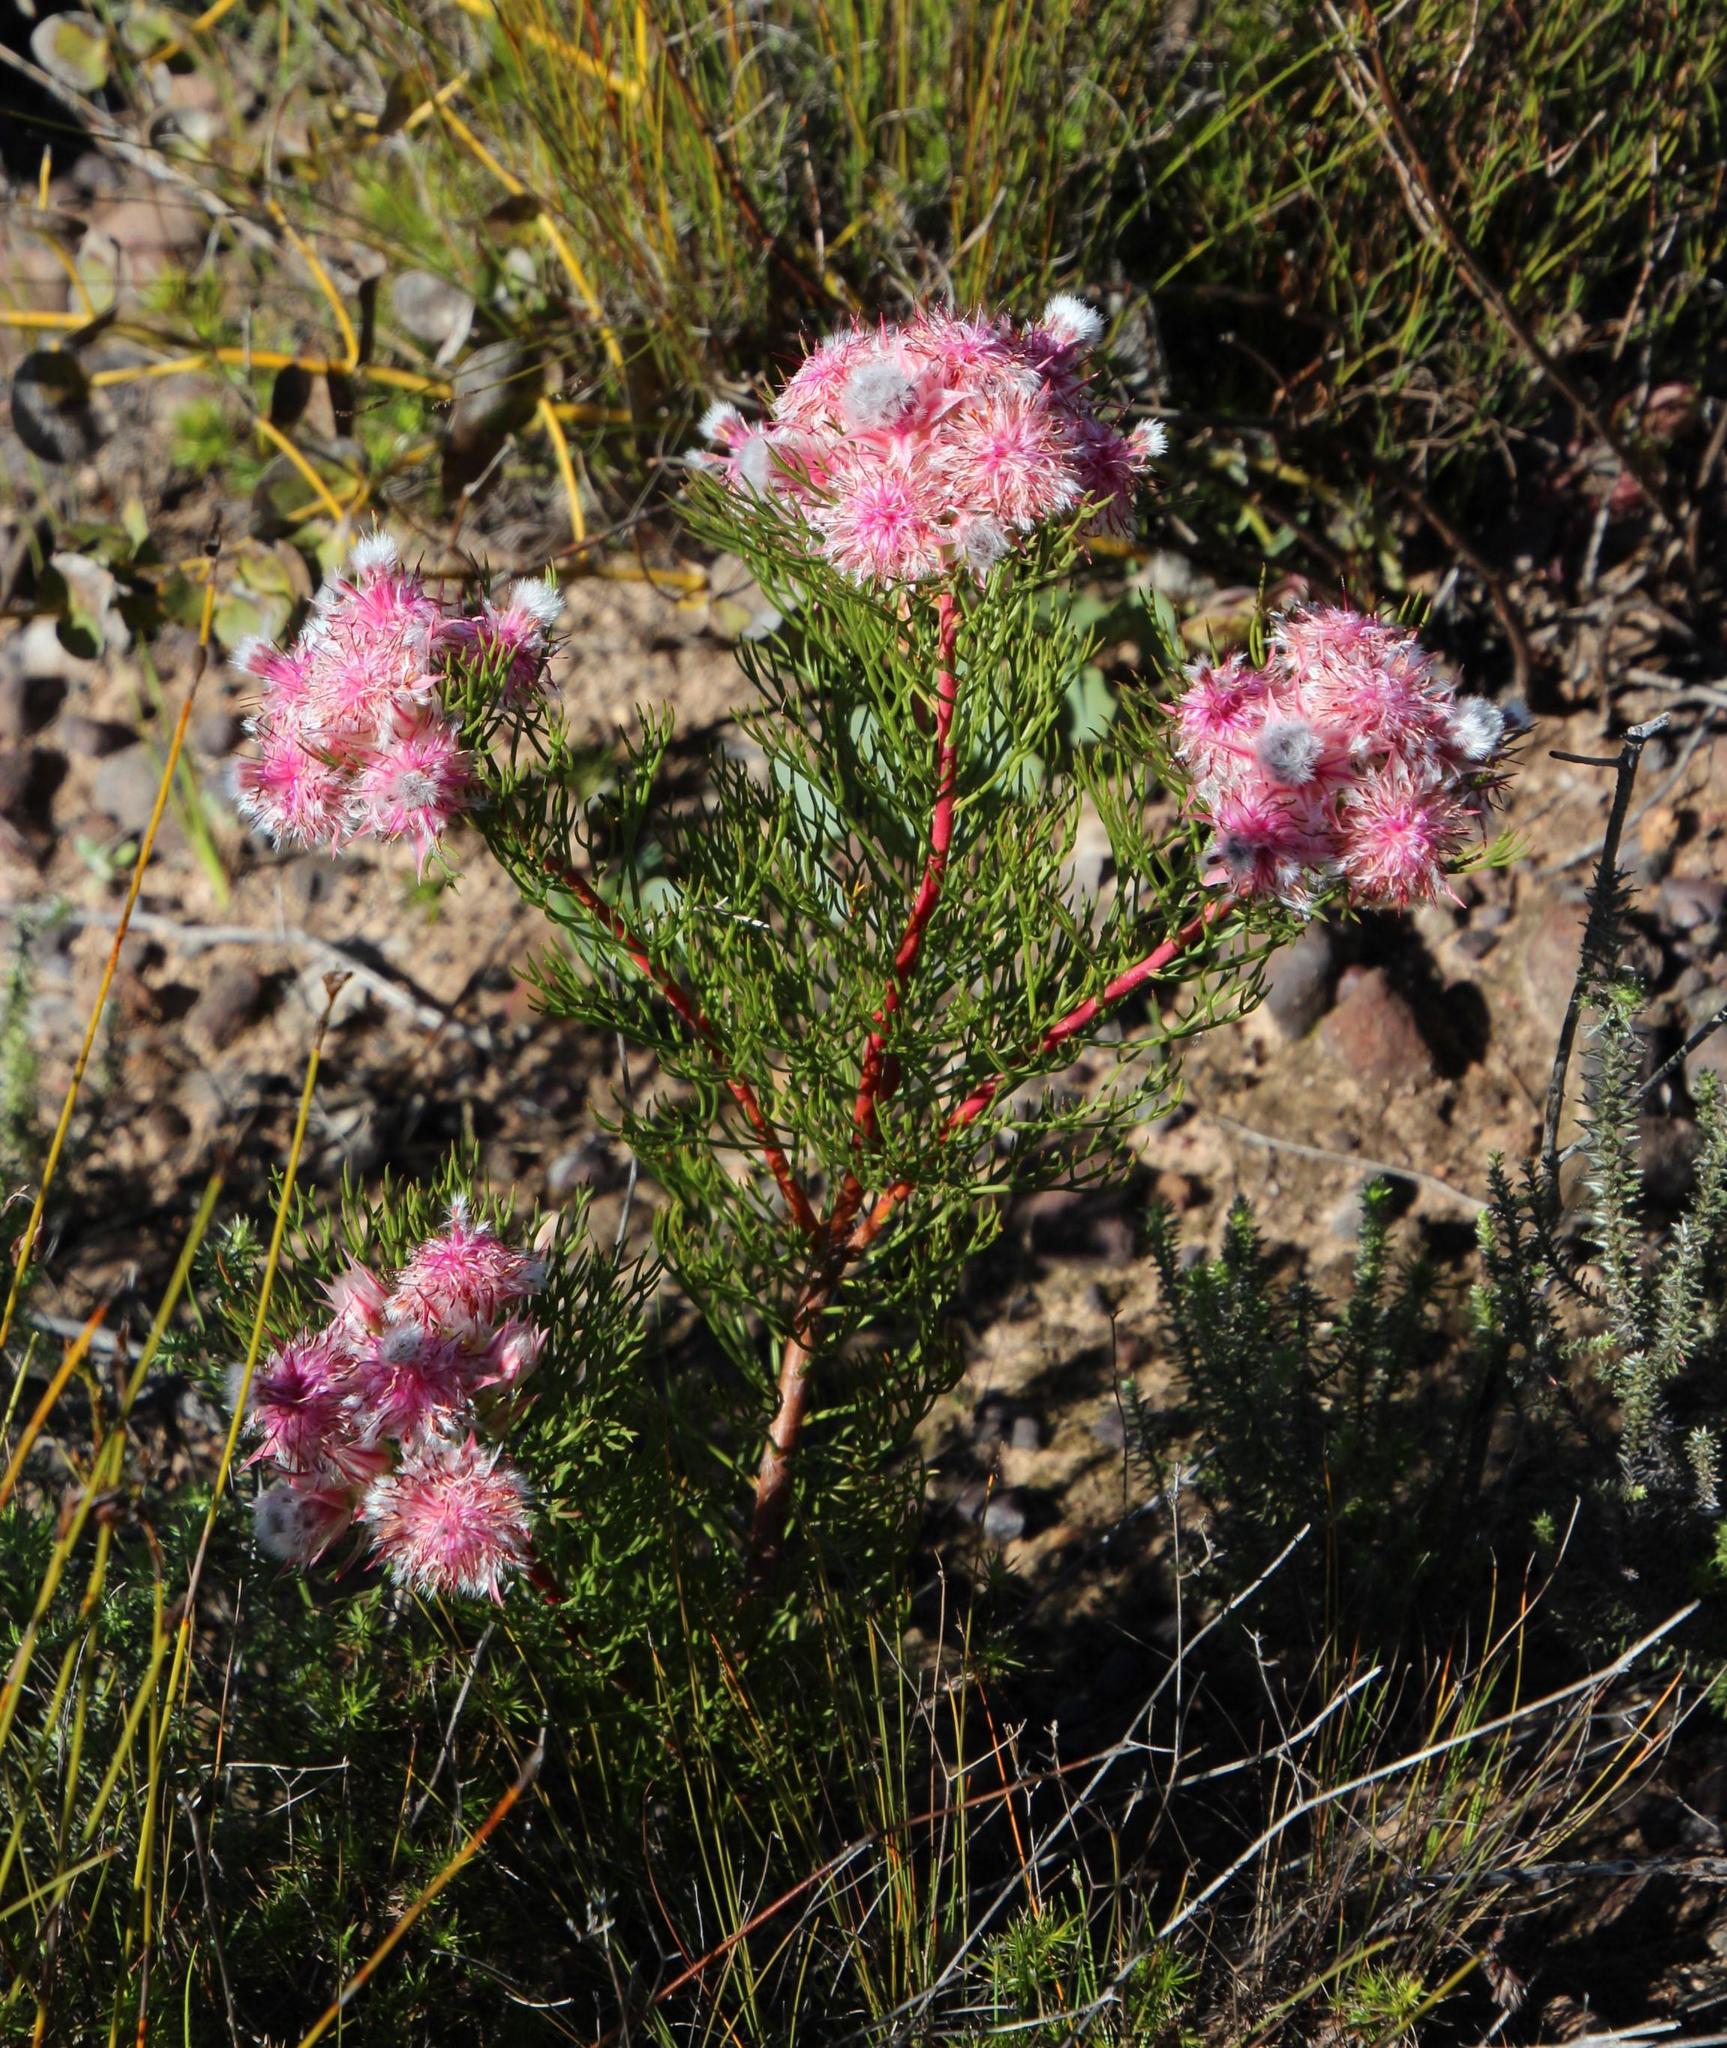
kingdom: Plantae
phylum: Tracheophyta
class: Magnoliopsida
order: Proteales
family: Proteaceae
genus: Serruria
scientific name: Serruria rosea
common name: Rose spiderhead
